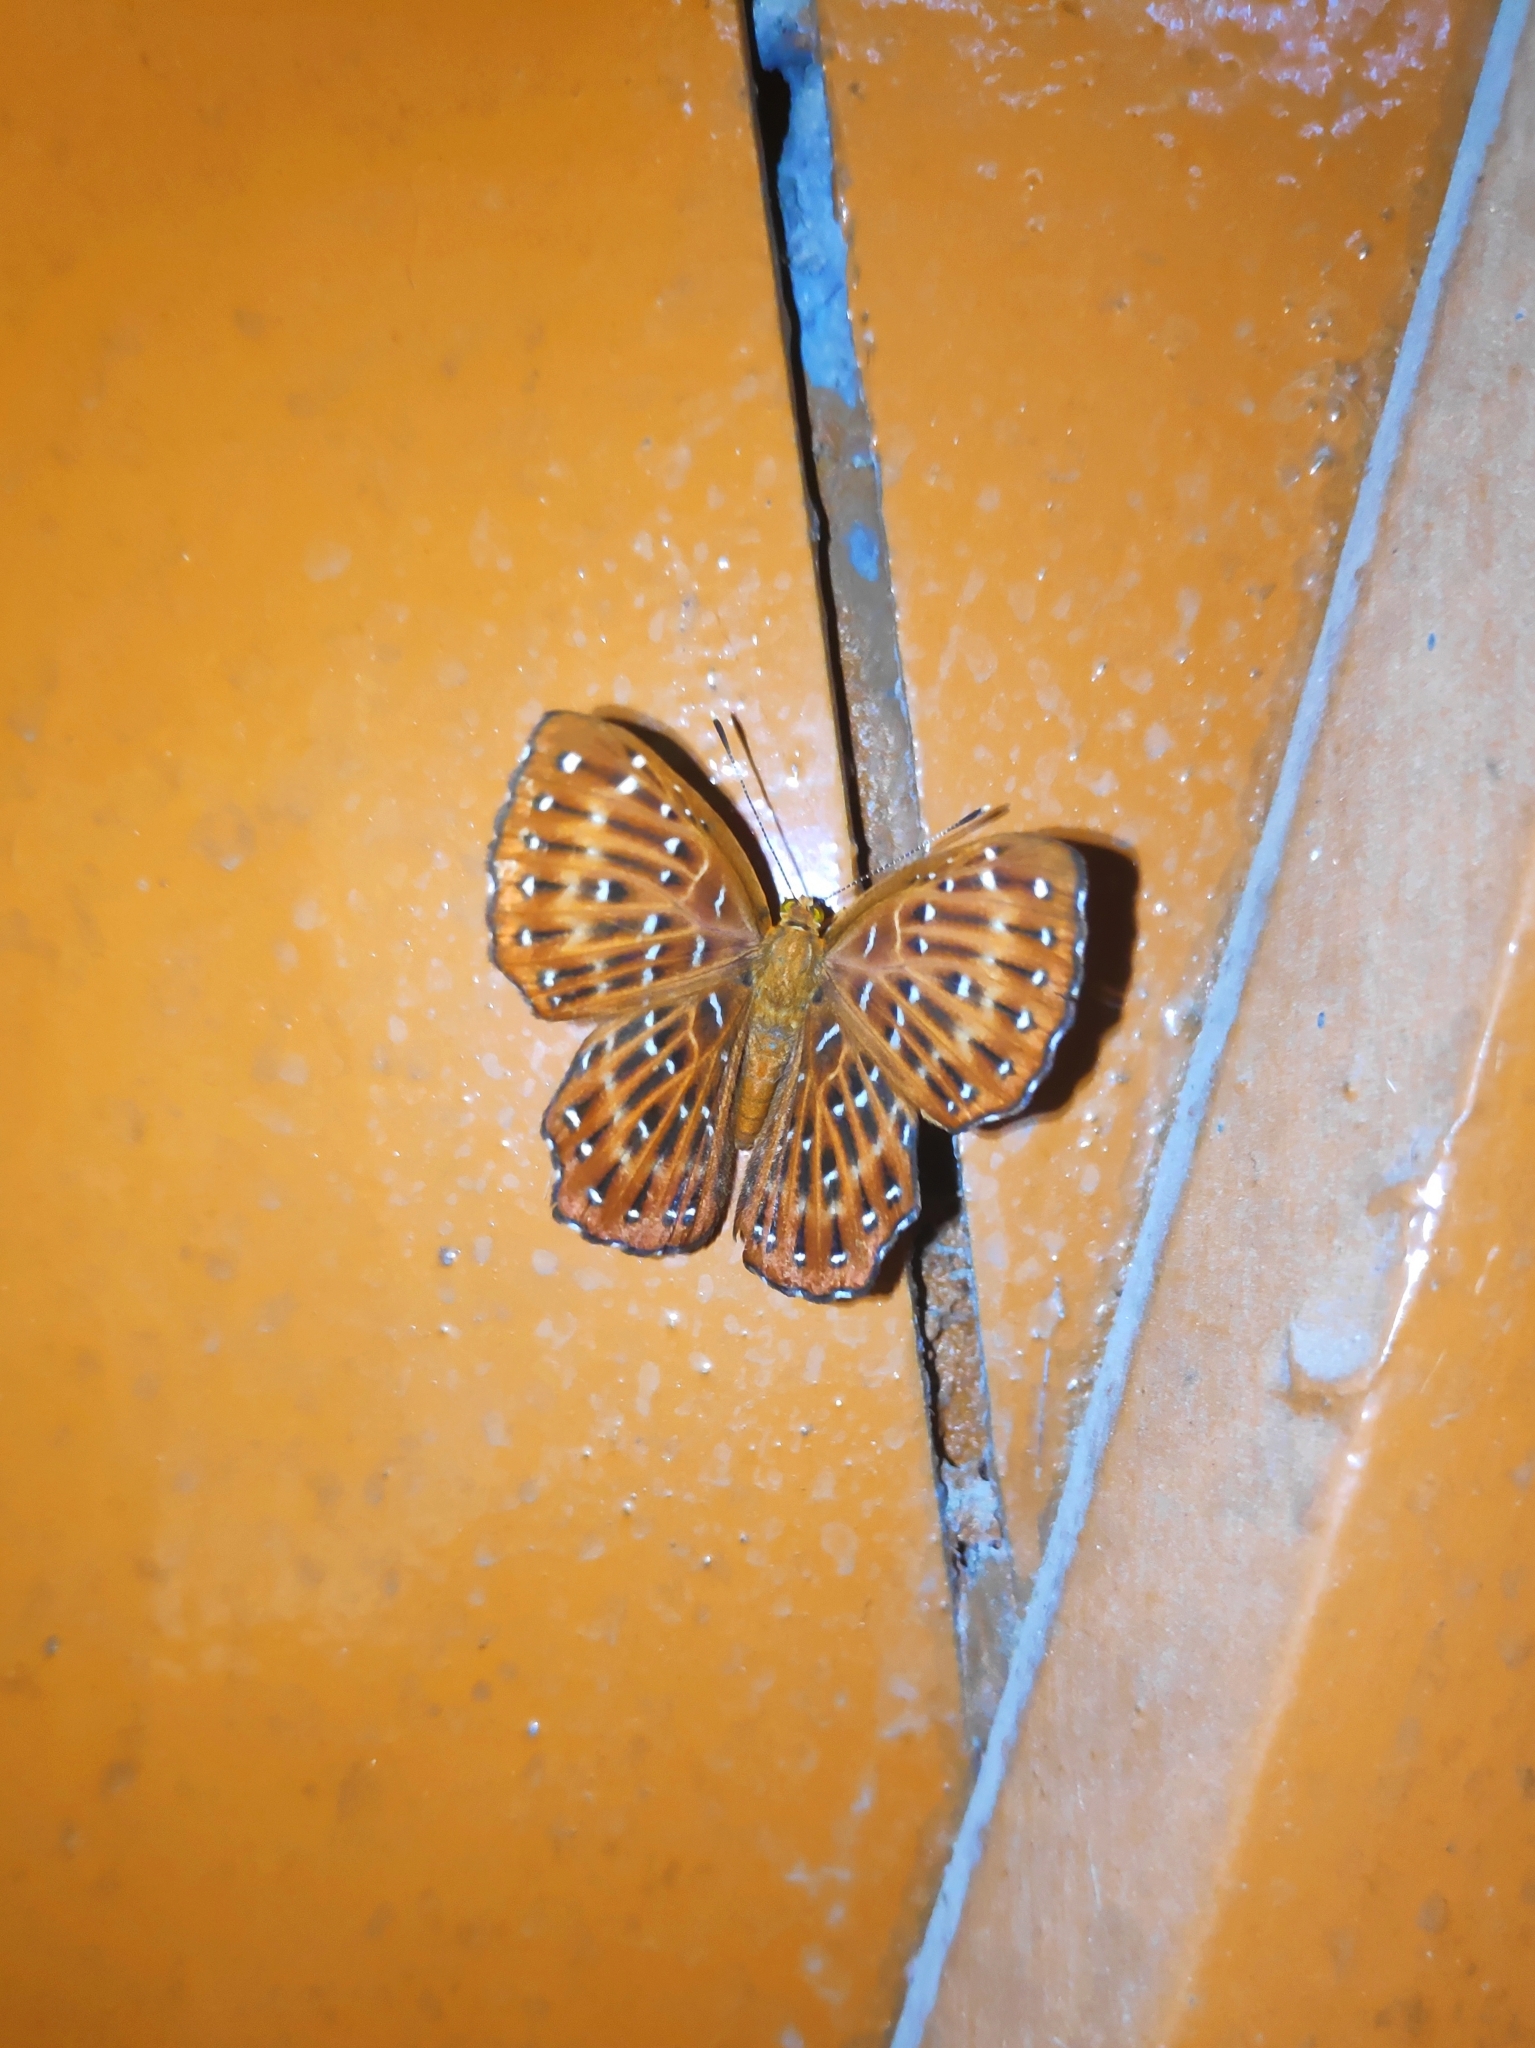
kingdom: Animalia
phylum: Arthropoda
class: Insecta
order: Lepidoptera
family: Riodinidae
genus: Zemeros
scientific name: Zemeros flegyas
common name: Punchinello
